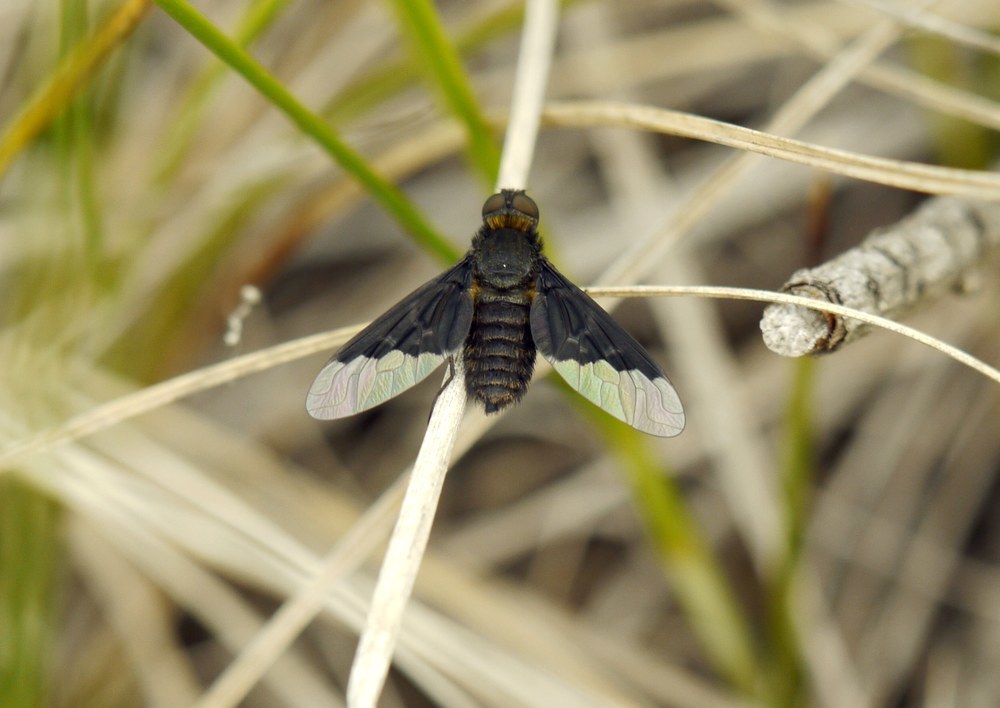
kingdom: Animalia
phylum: Arthropoda
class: Insecta
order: Diptera
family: Bombyliidae
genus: Hemipenthes
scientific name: Hemipenthes morio
